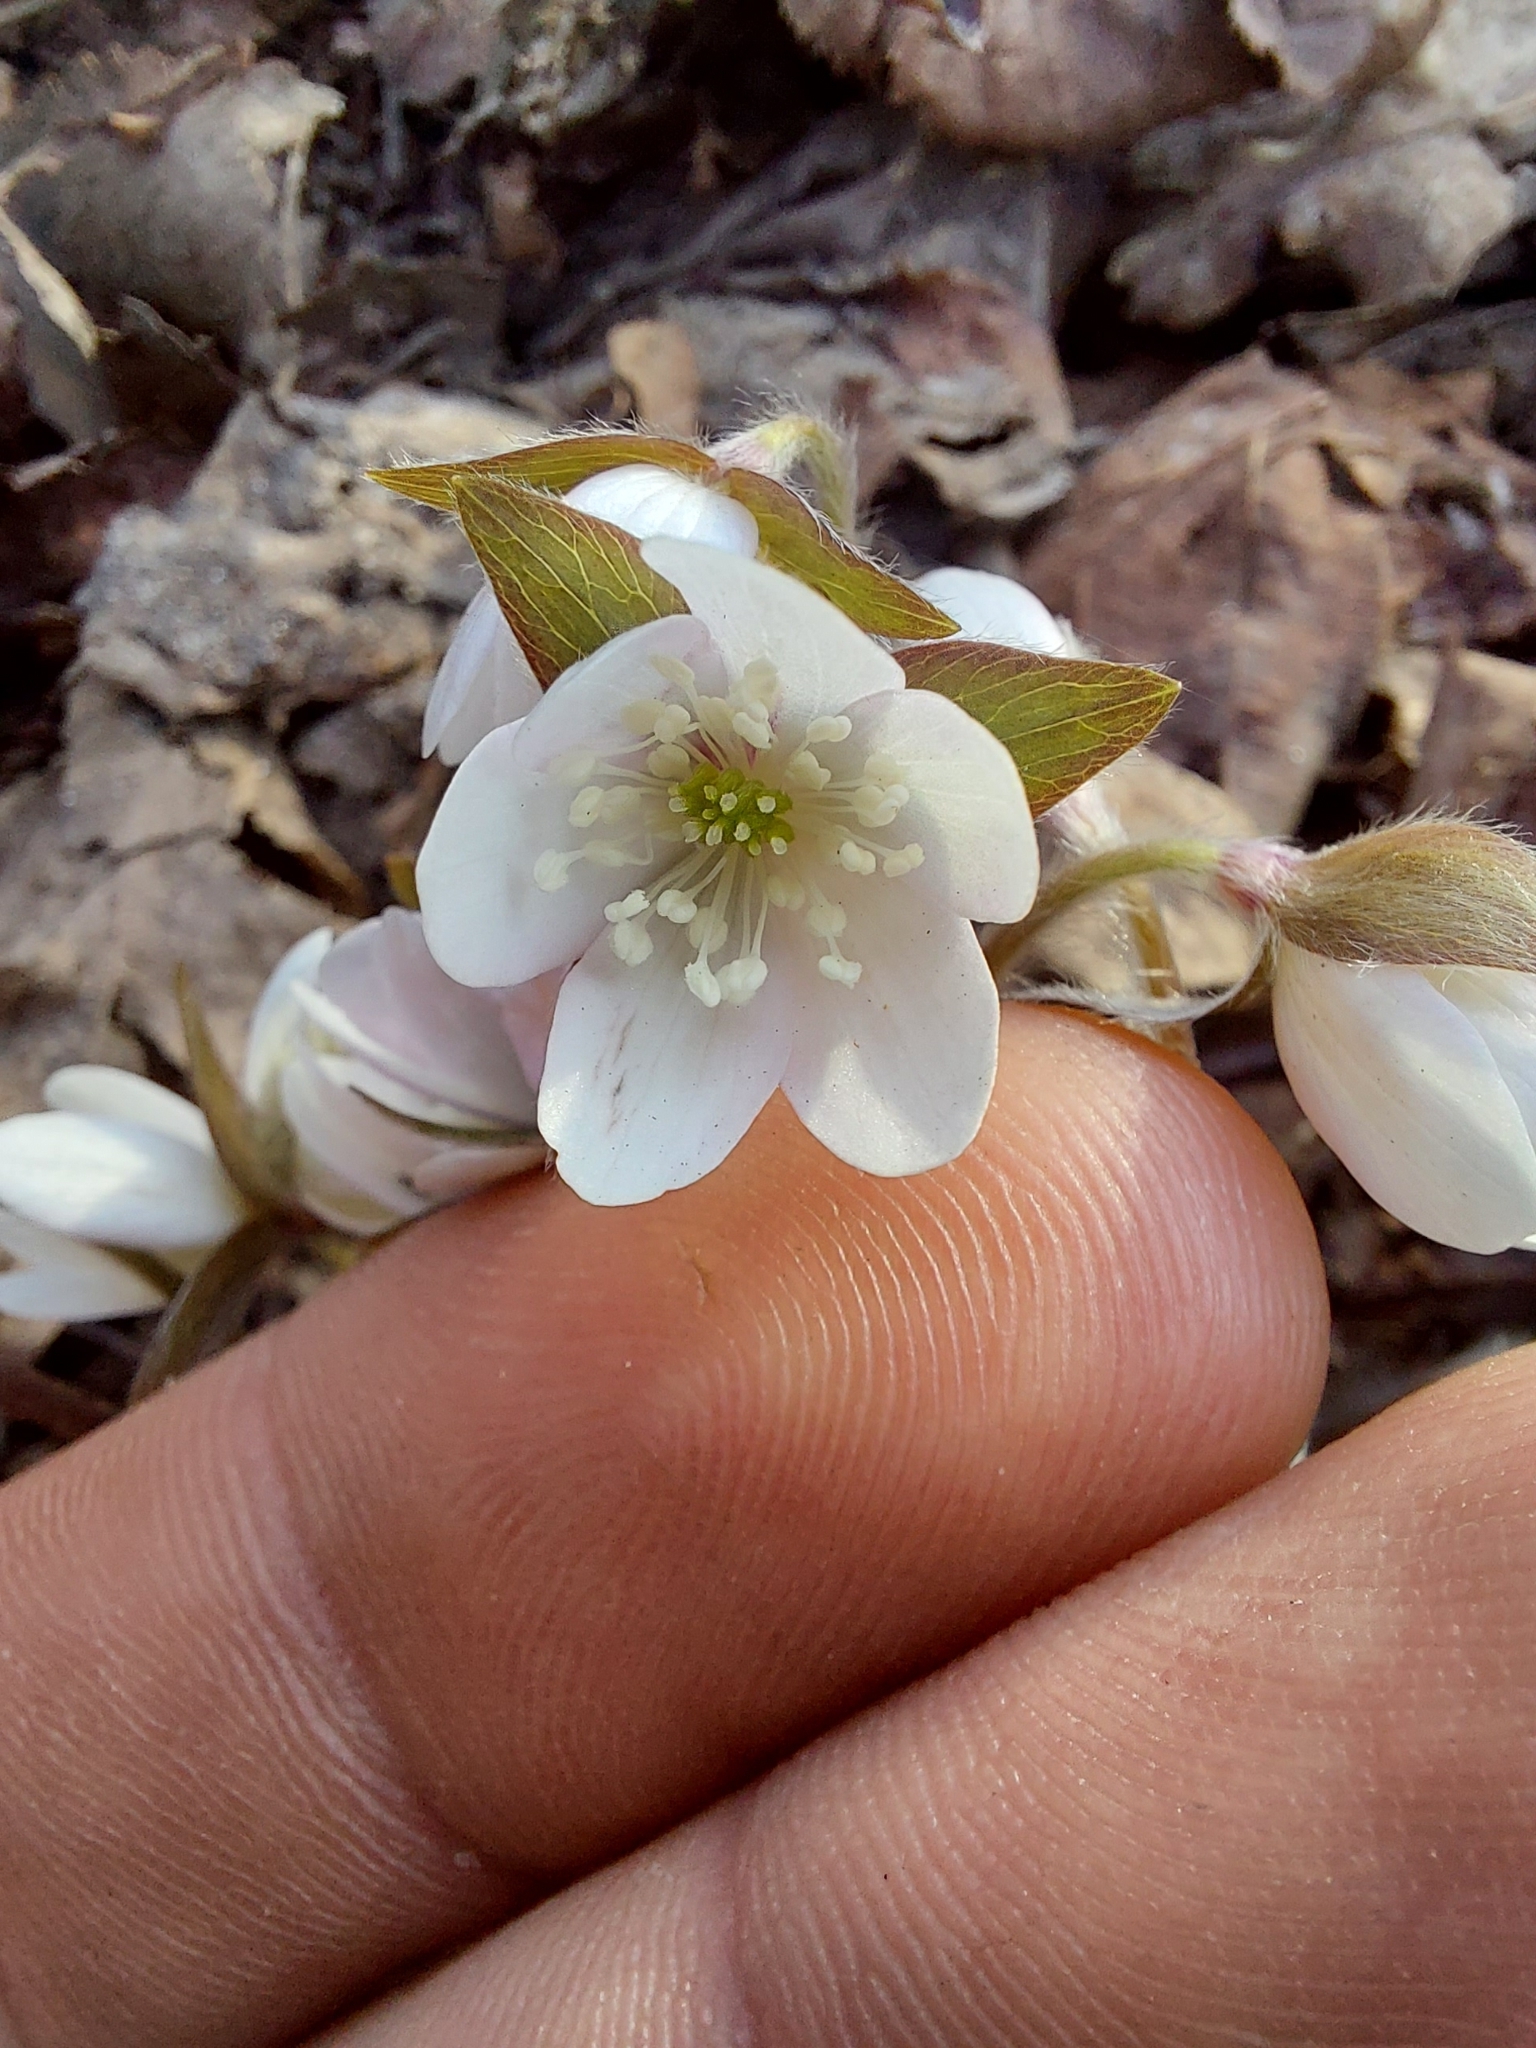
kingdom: Plantae
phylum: Tracheophyta
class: Magnoliopsida
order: Ranunculales
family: Ranunculaceae
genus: Hepatica
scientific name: Hepatica acutiloba
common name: Sharp-lobed hepatica
